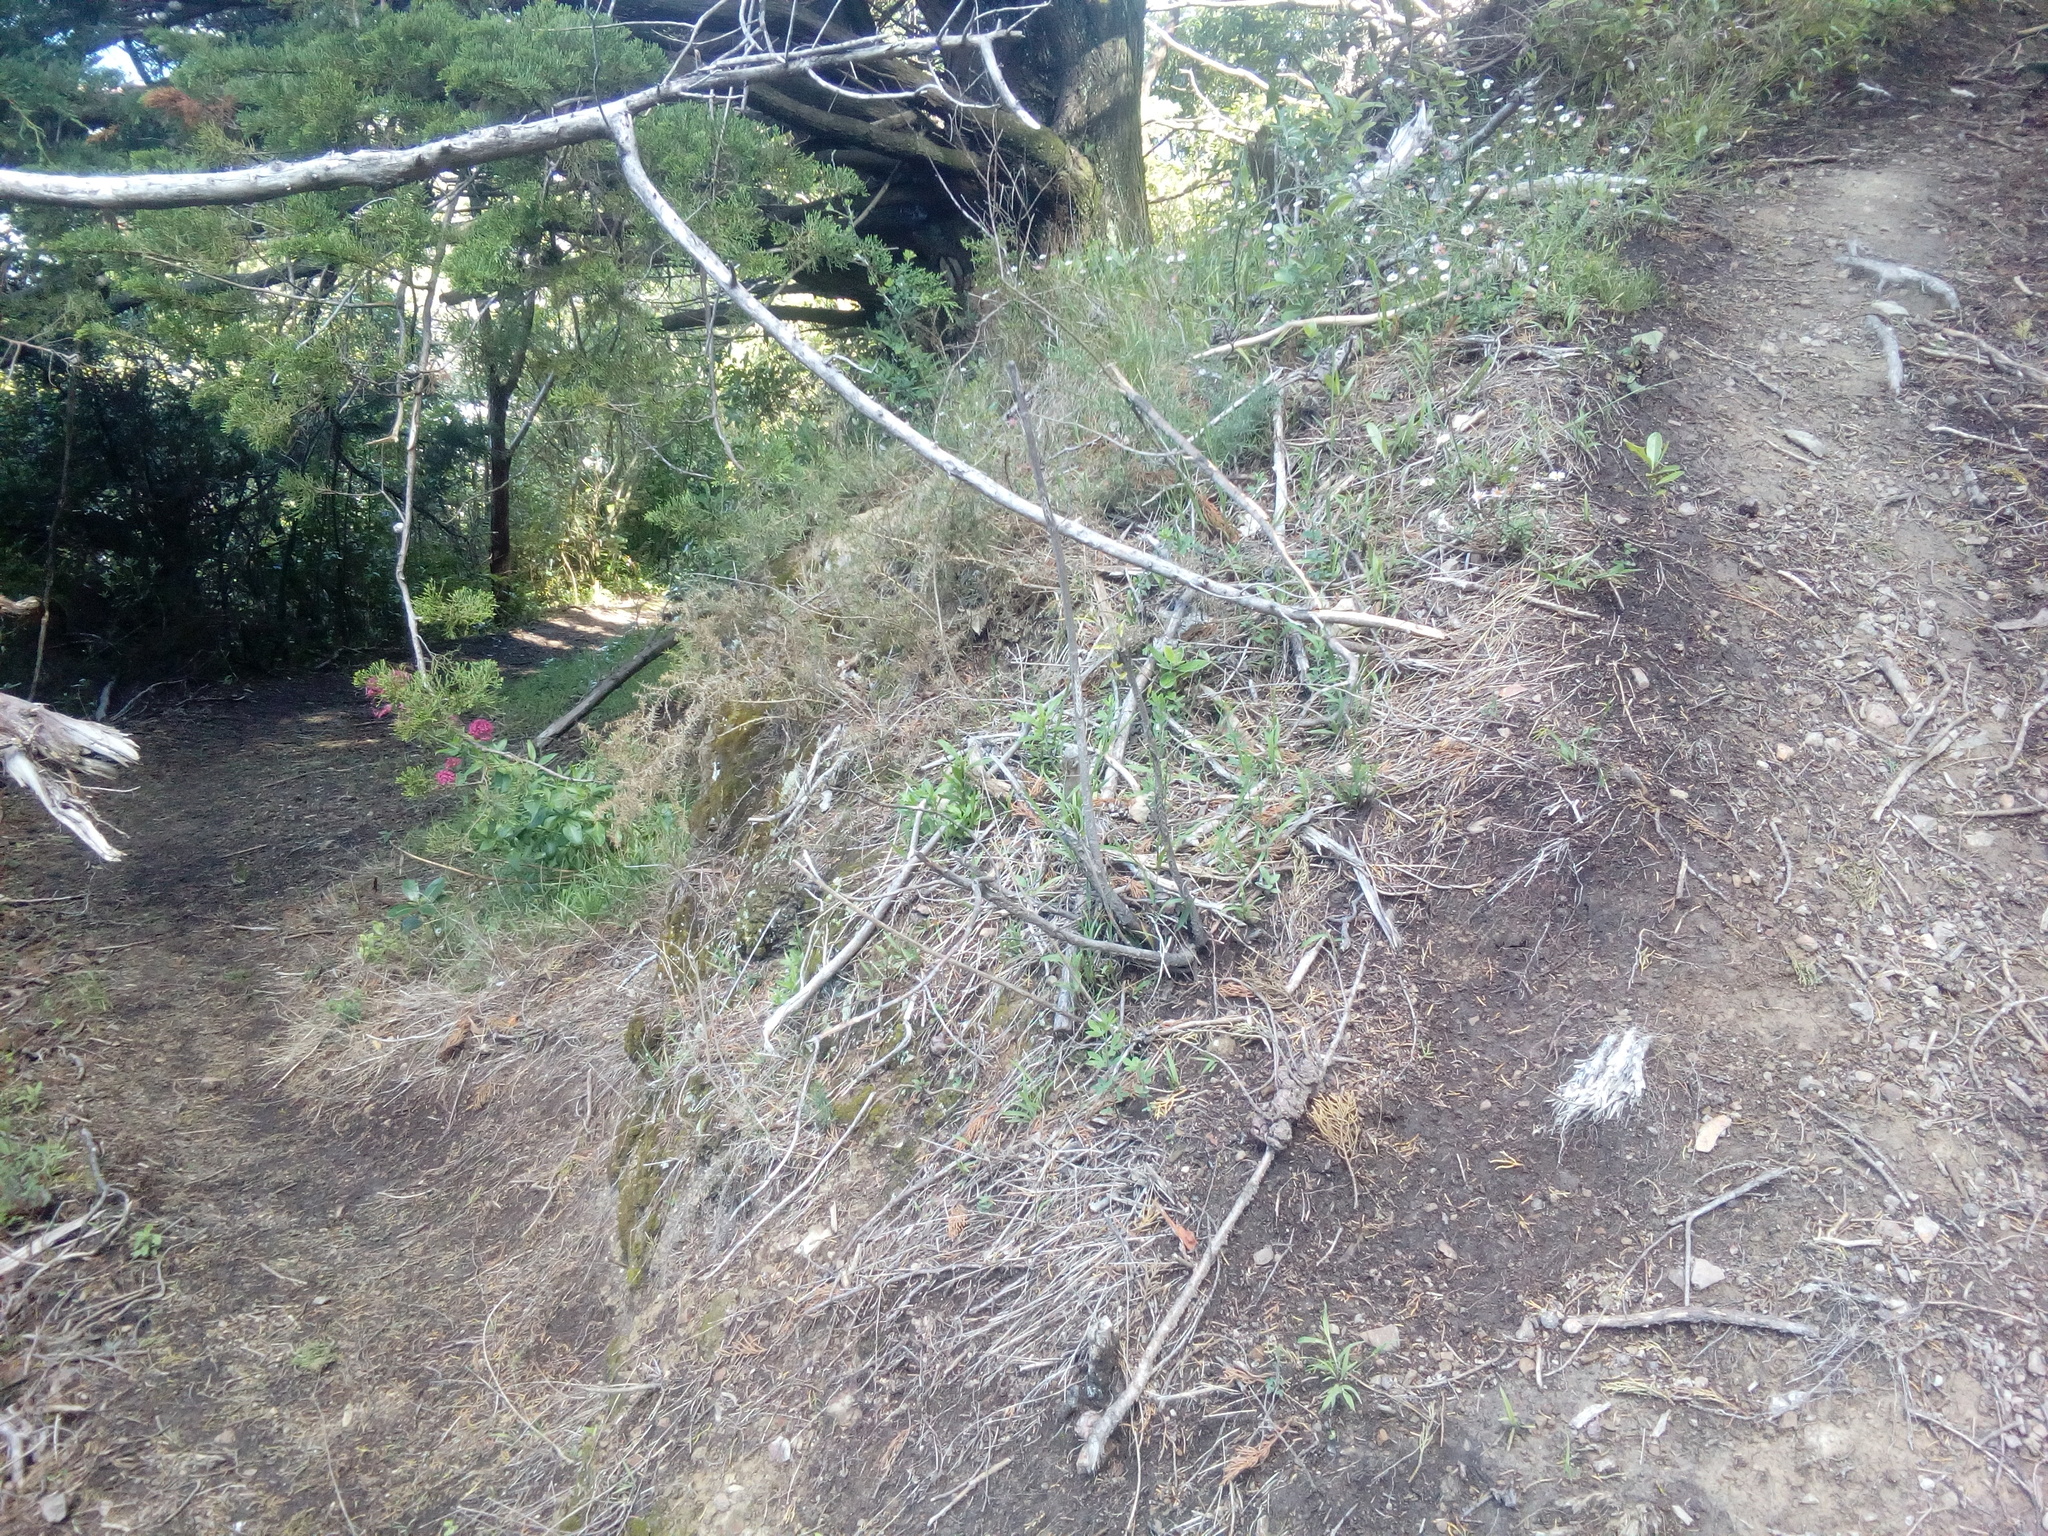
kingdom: Plantae
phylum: Tracheophyta
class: Magnoliopsida
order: Dipsacales
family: Caprifoliaceae
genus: Centranthus
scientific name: Centranthus ruber
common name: Red valerian
